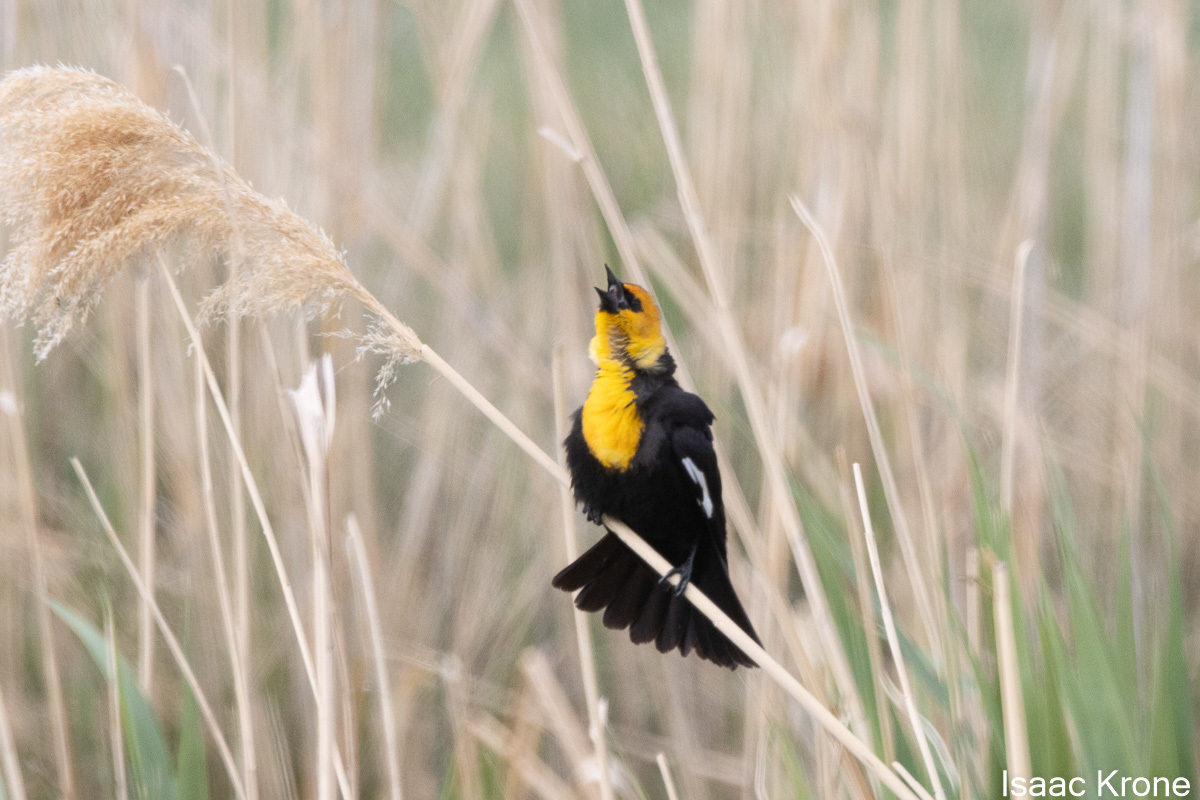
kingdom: Animalia
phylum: Chordata
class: Aves
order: Passeriformes
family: Icteridae
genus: Xanthocephalus
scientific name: Xanthocephalus xanthocephalus
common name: Yellow-headed blackbird
